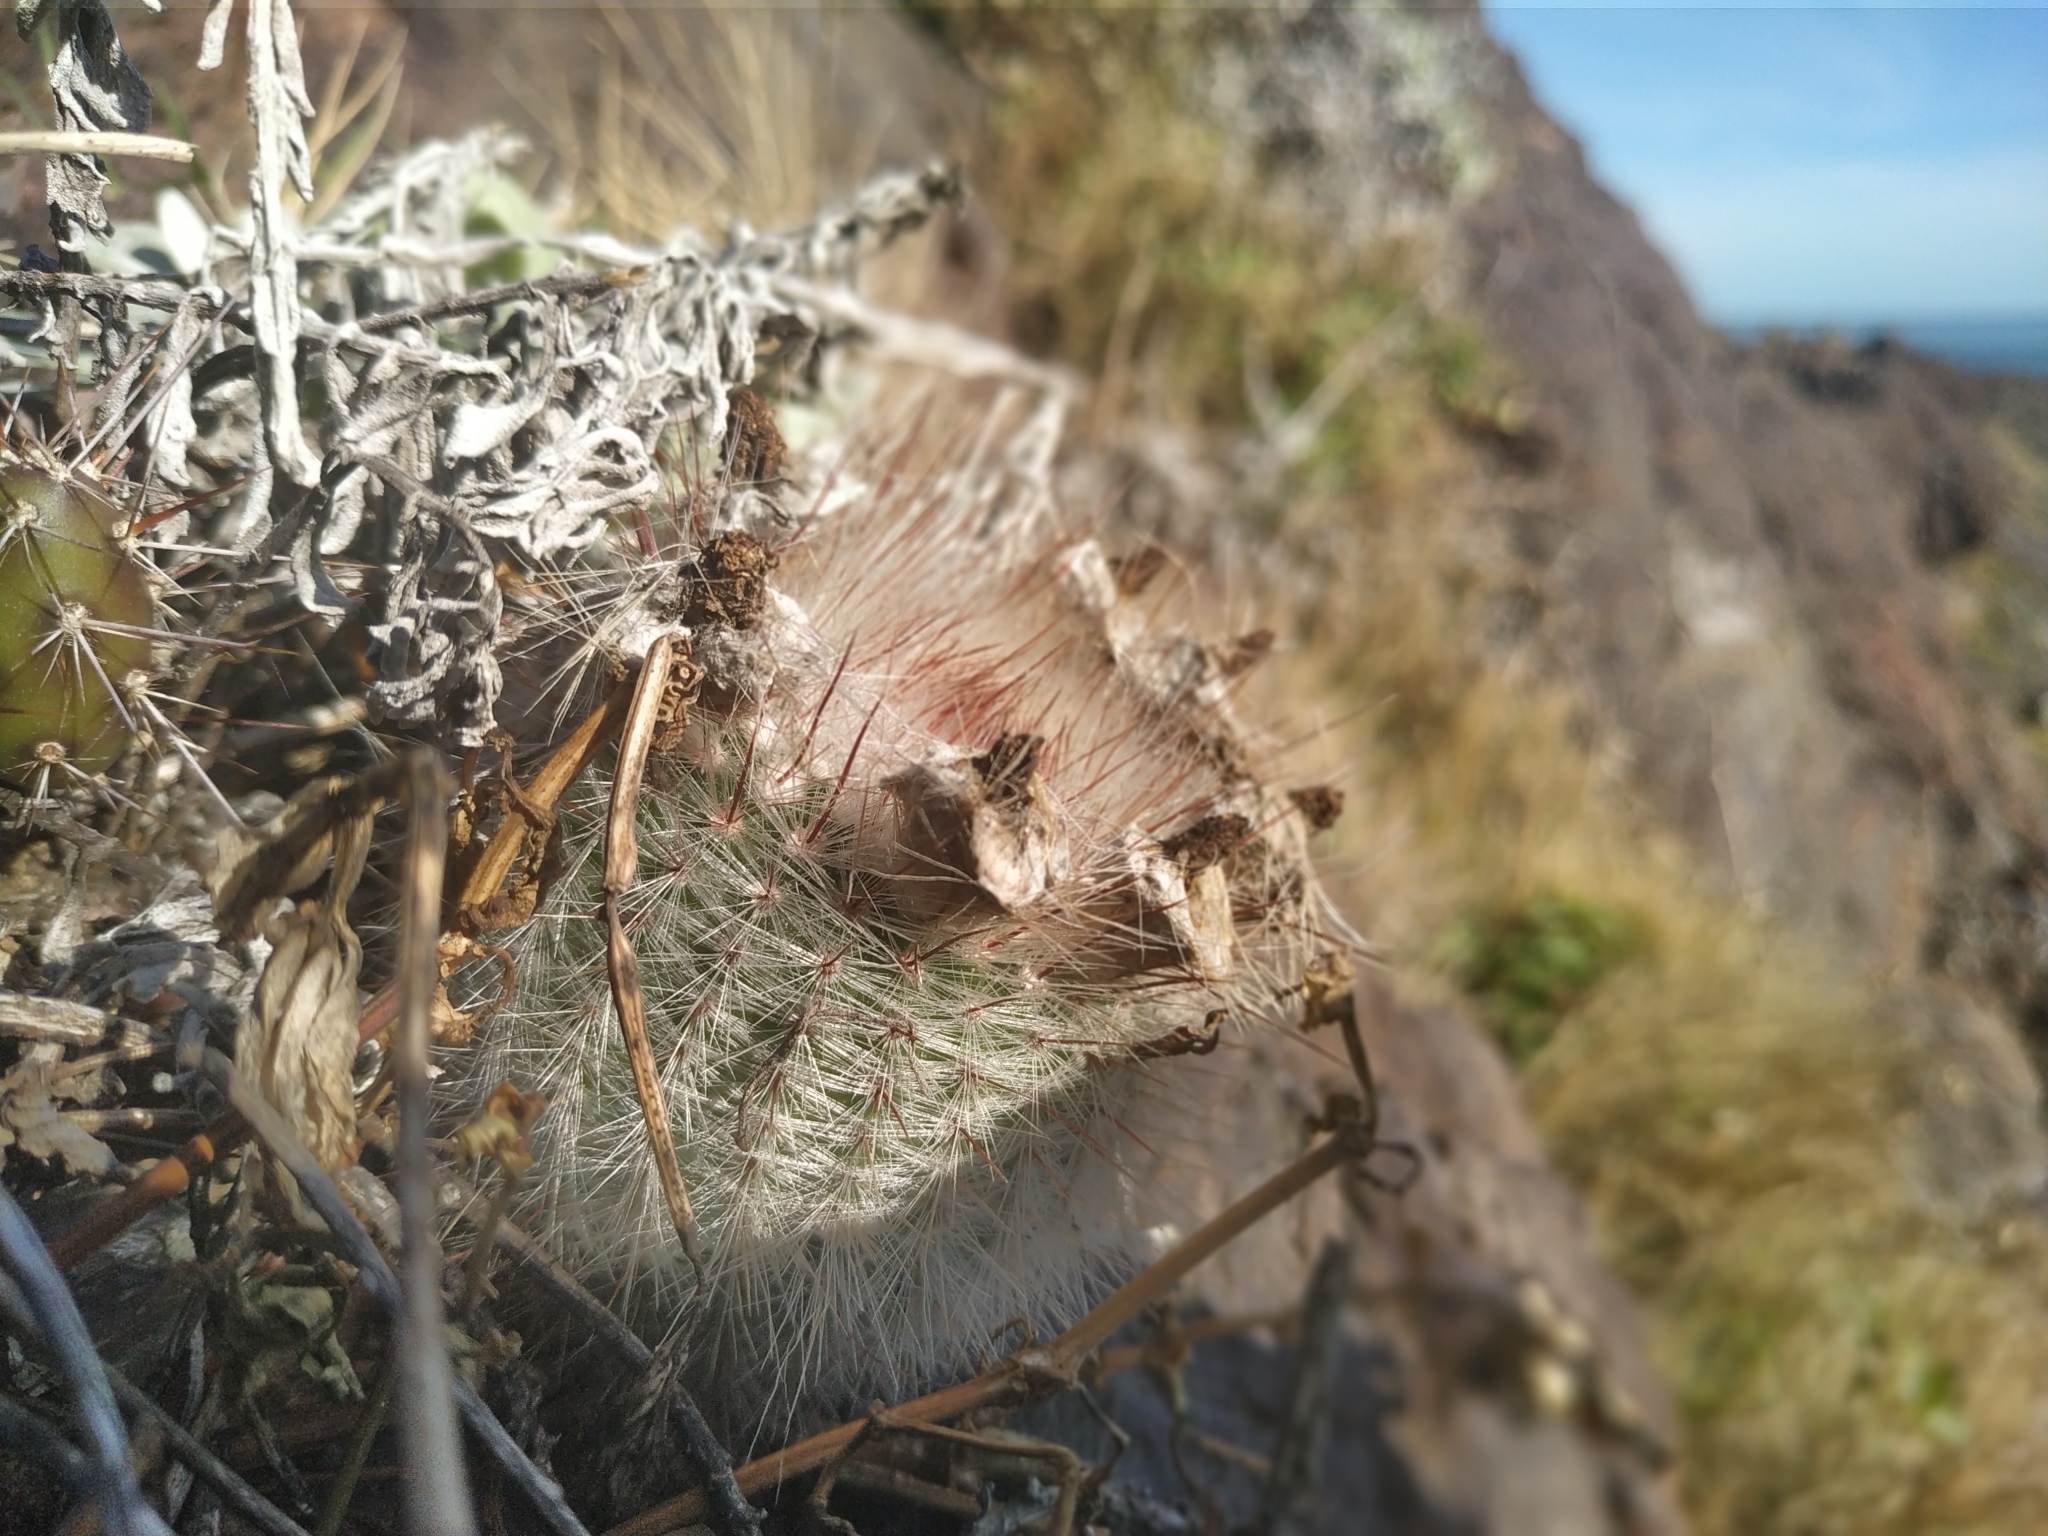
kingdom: Plantae
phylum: Tracheophyta
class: Magnoliopsida
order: Caryophyllales
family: Cactaceae
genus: Parodia
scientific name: Parodia scopa
